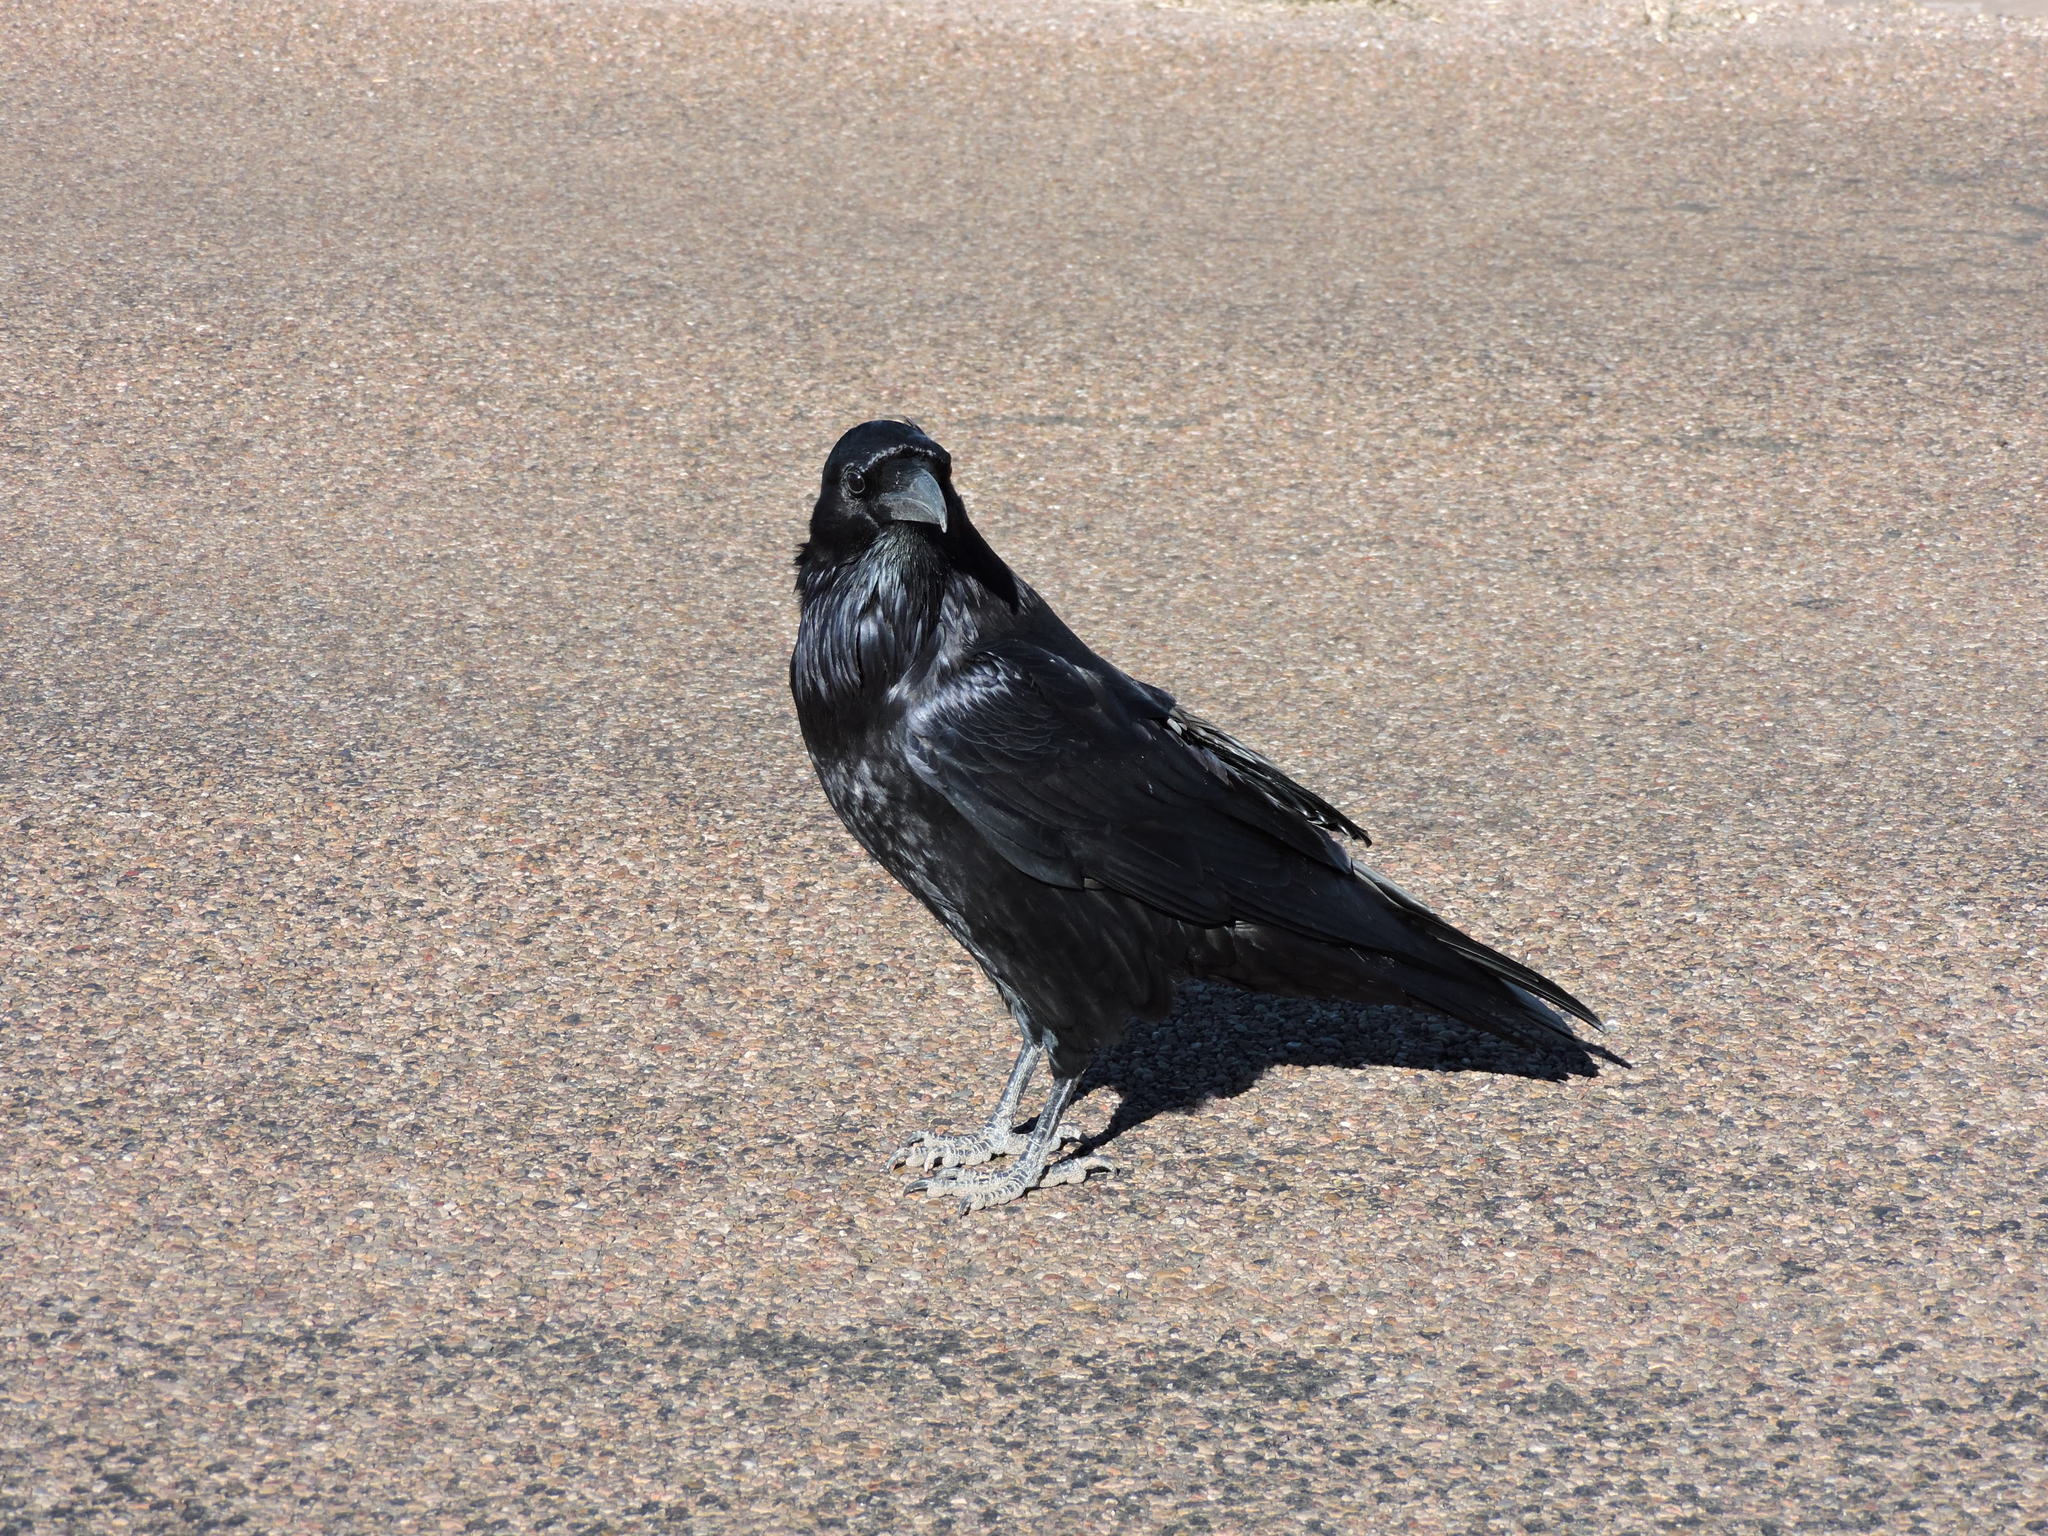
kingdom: Animalia
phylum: Chordata
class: Aves
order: Passeriformes
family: Corvidae
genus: Corvus
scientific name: Corvus corax
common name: Common raven
